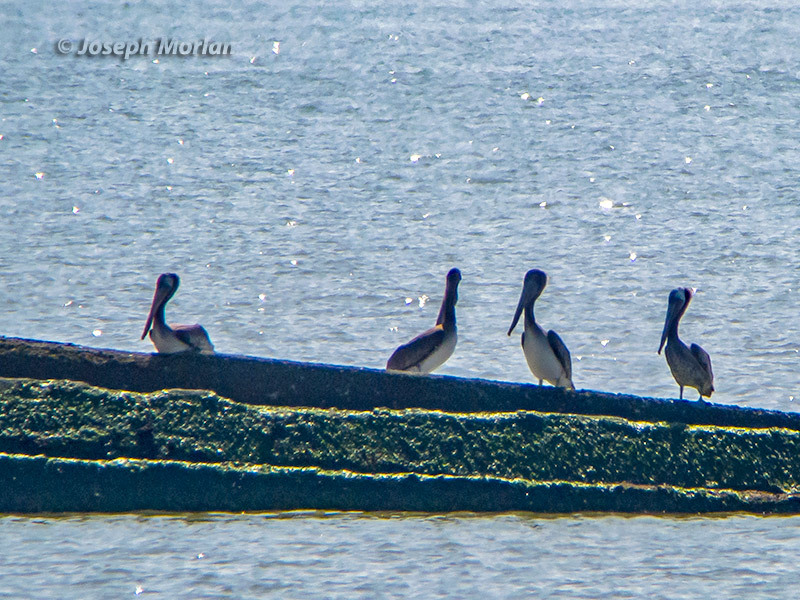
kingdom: Animalia
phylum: Chordata
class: Aves
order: Pelecaniformes
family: Pelecanidae
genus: Pelecanus
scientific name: Pelecanus occidentalis
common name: Brown pelican
